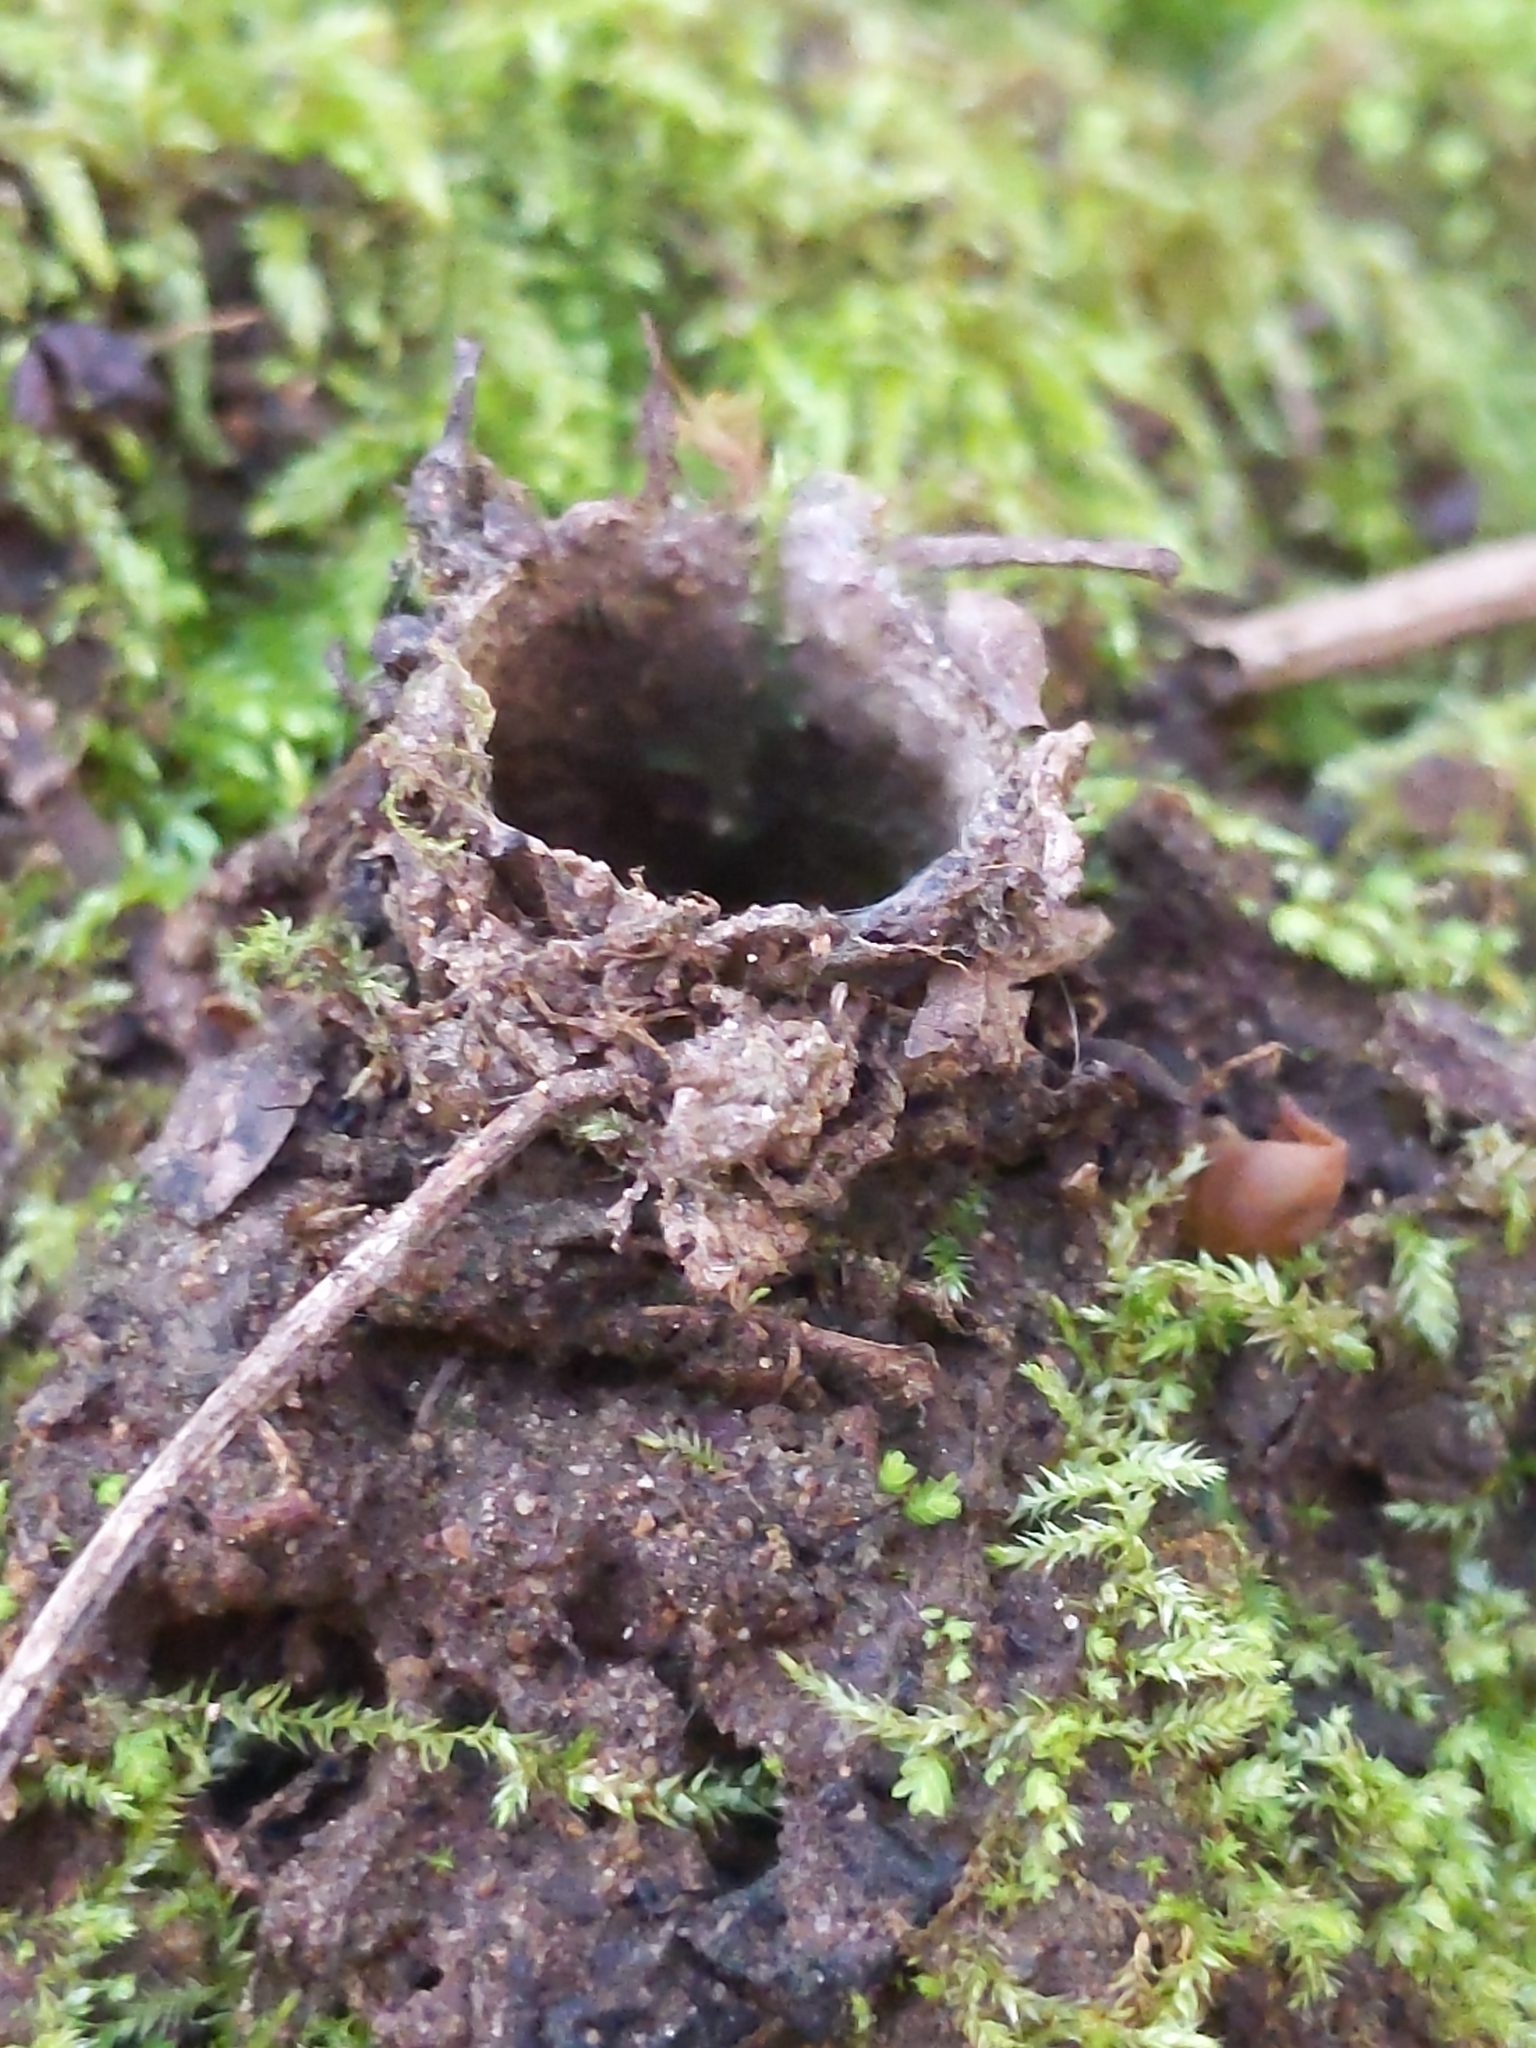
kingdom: Animalia
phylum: Arthropoda
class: Arachnida
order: Araneae
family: Antrodiaetidae
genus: Atypoides
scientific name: Atypoides riversi
